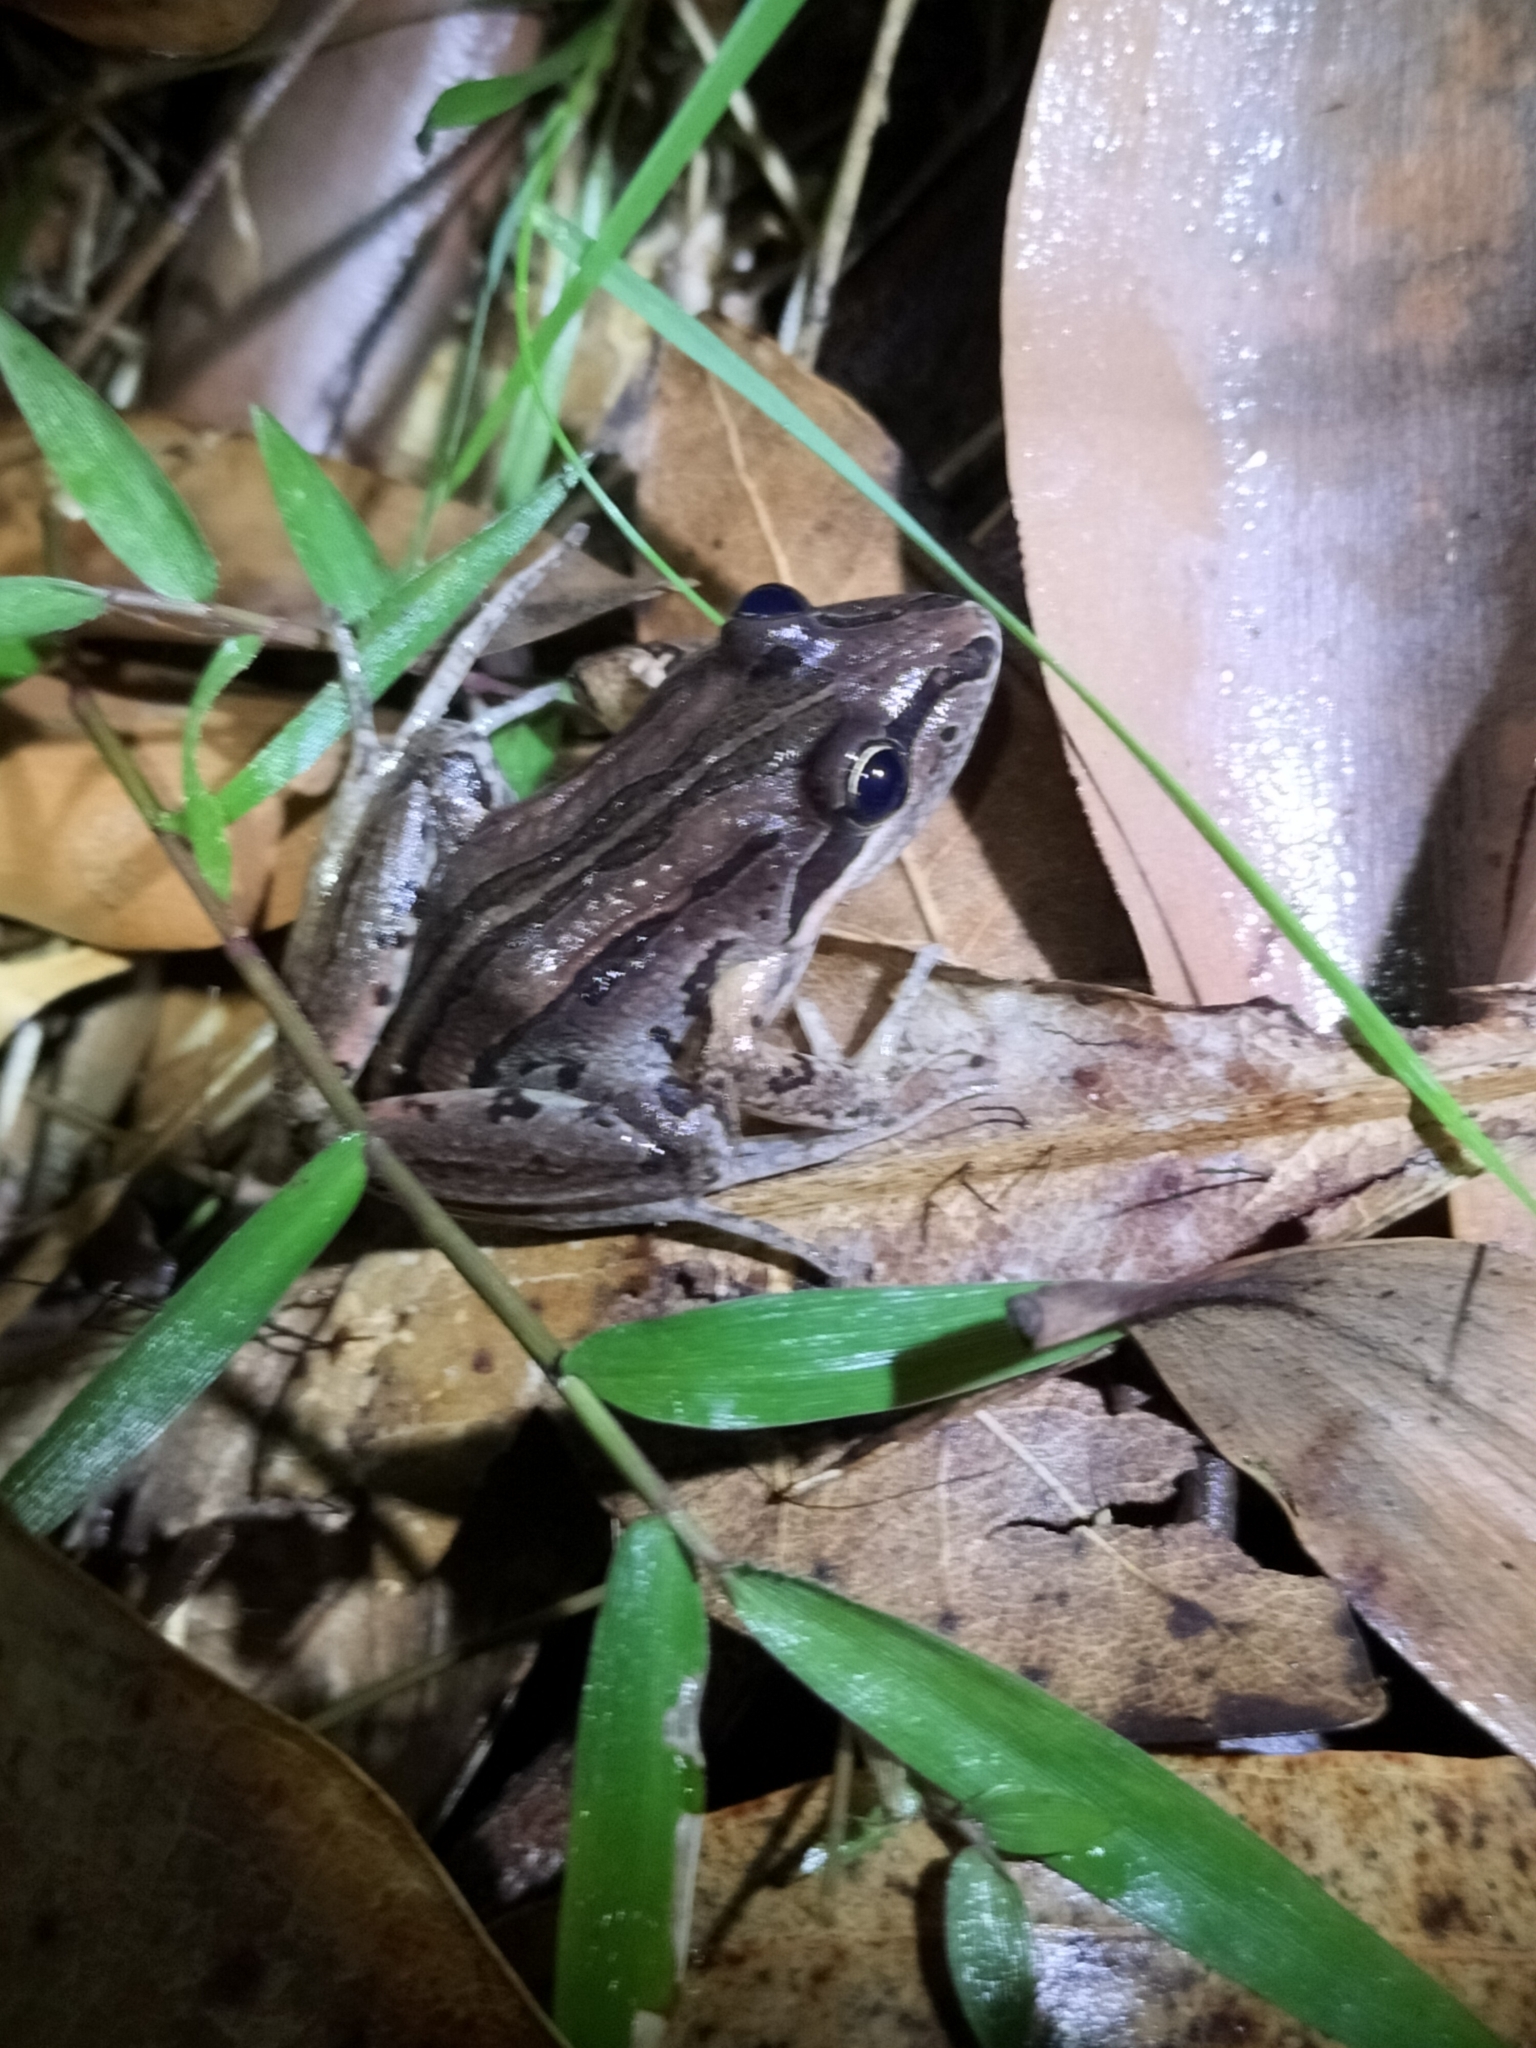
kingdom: Animalia
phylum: Chordata
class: Amphibia
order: Anura
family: Limnodynastidae
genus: Limnodynastes
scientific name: Limnodynastes peronii
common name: Brown frog
